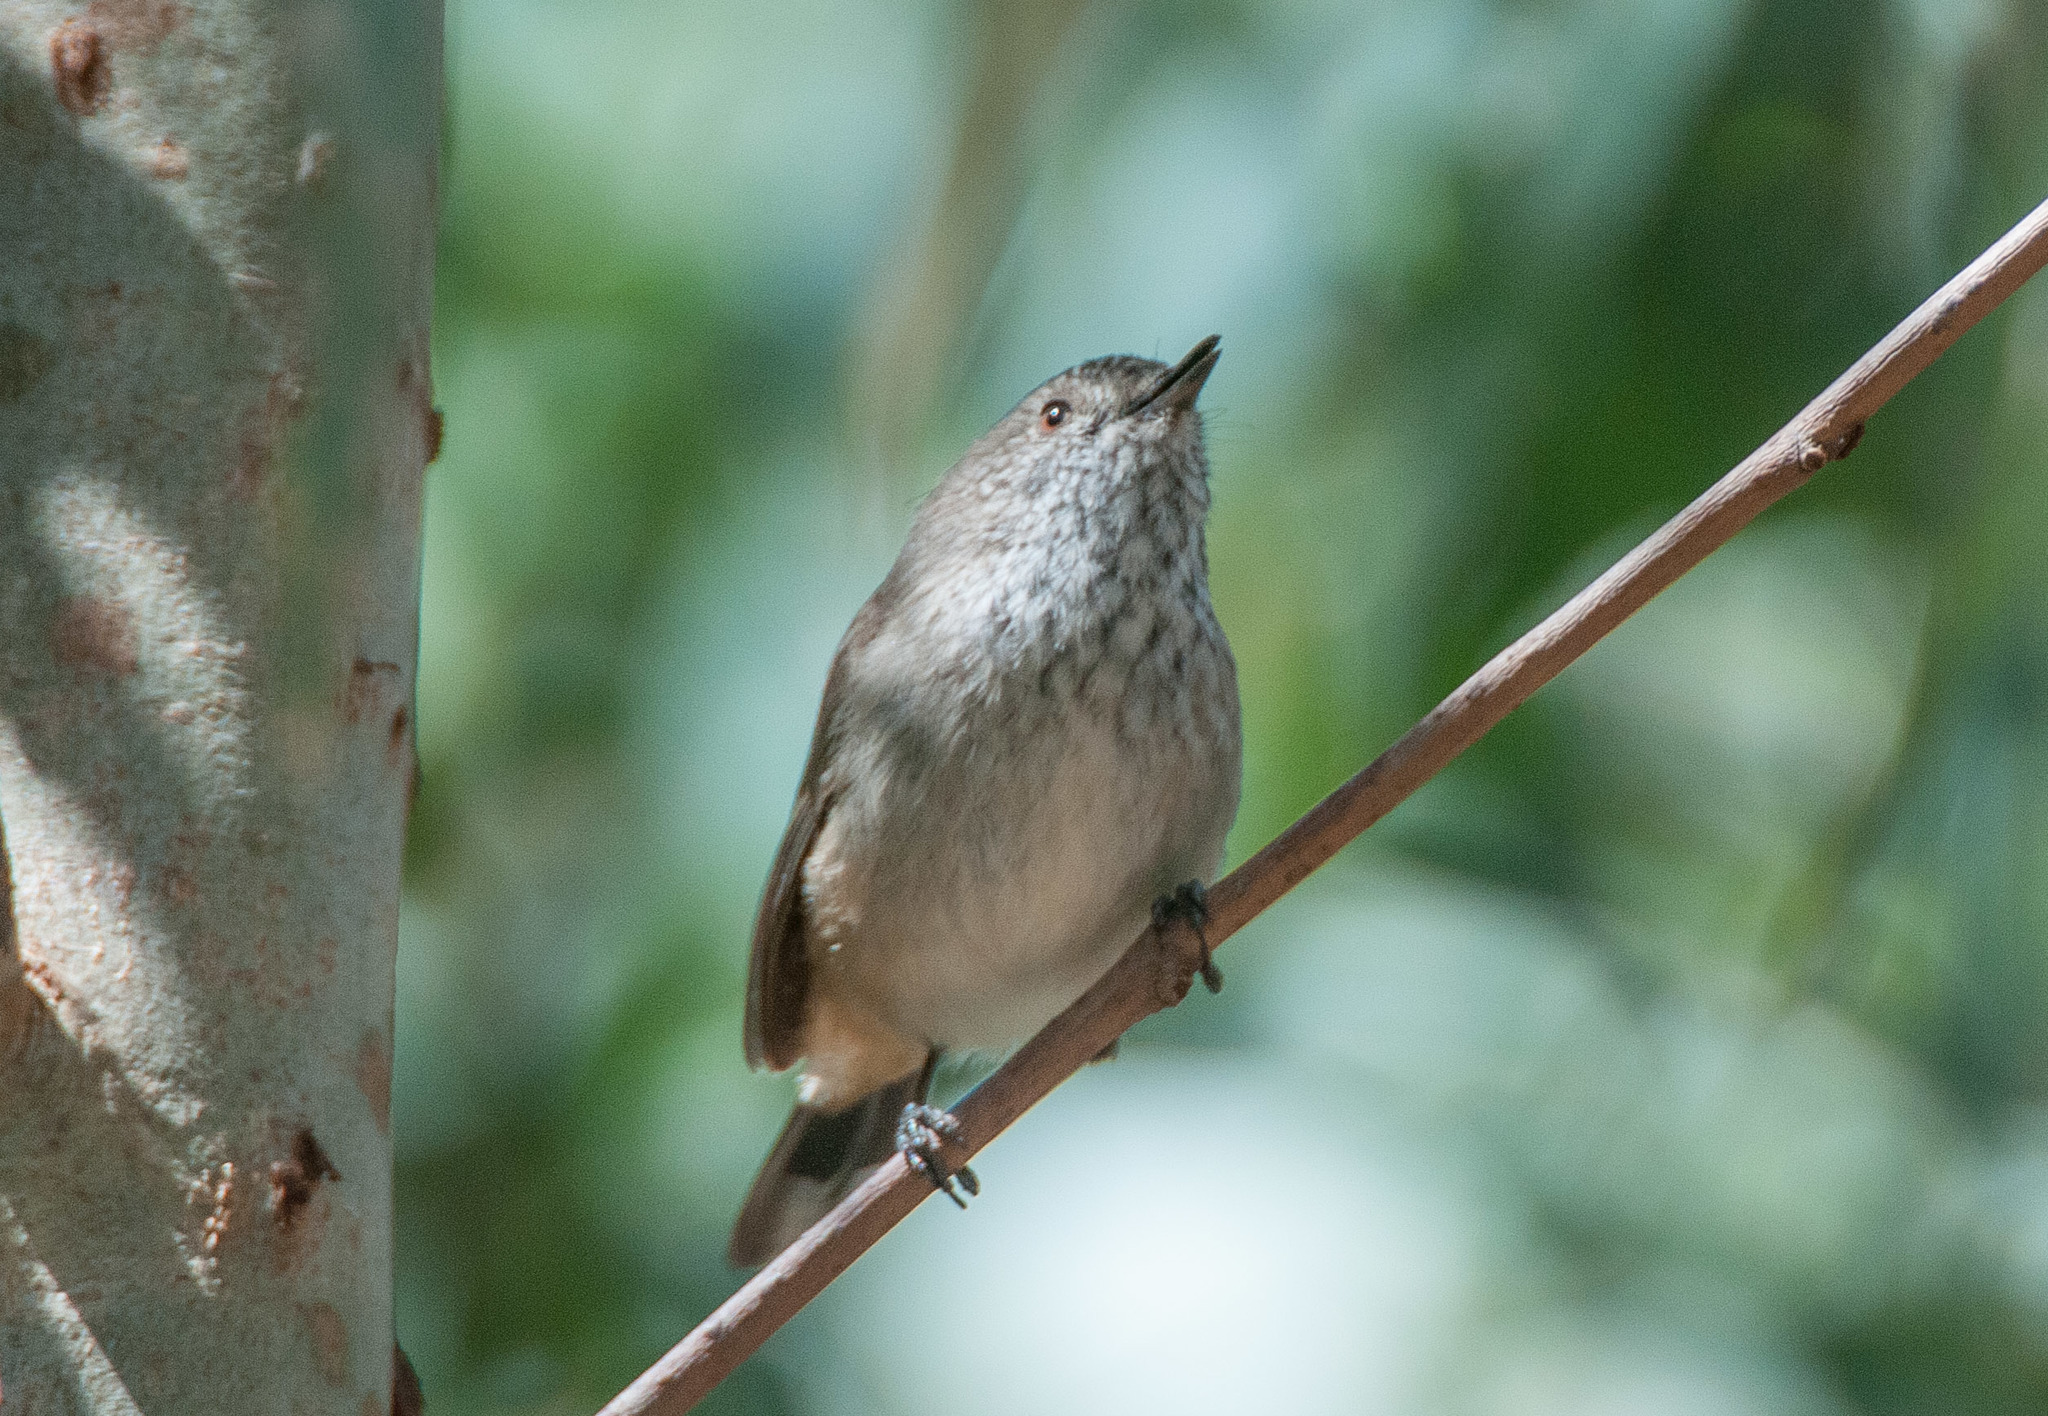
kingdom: Animalia
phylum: Chordata
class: Aves
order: Passeriformes
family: Acanthizidae
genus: Acanthiza
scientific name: Acanthiza apicalis
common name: Inland thornbill
